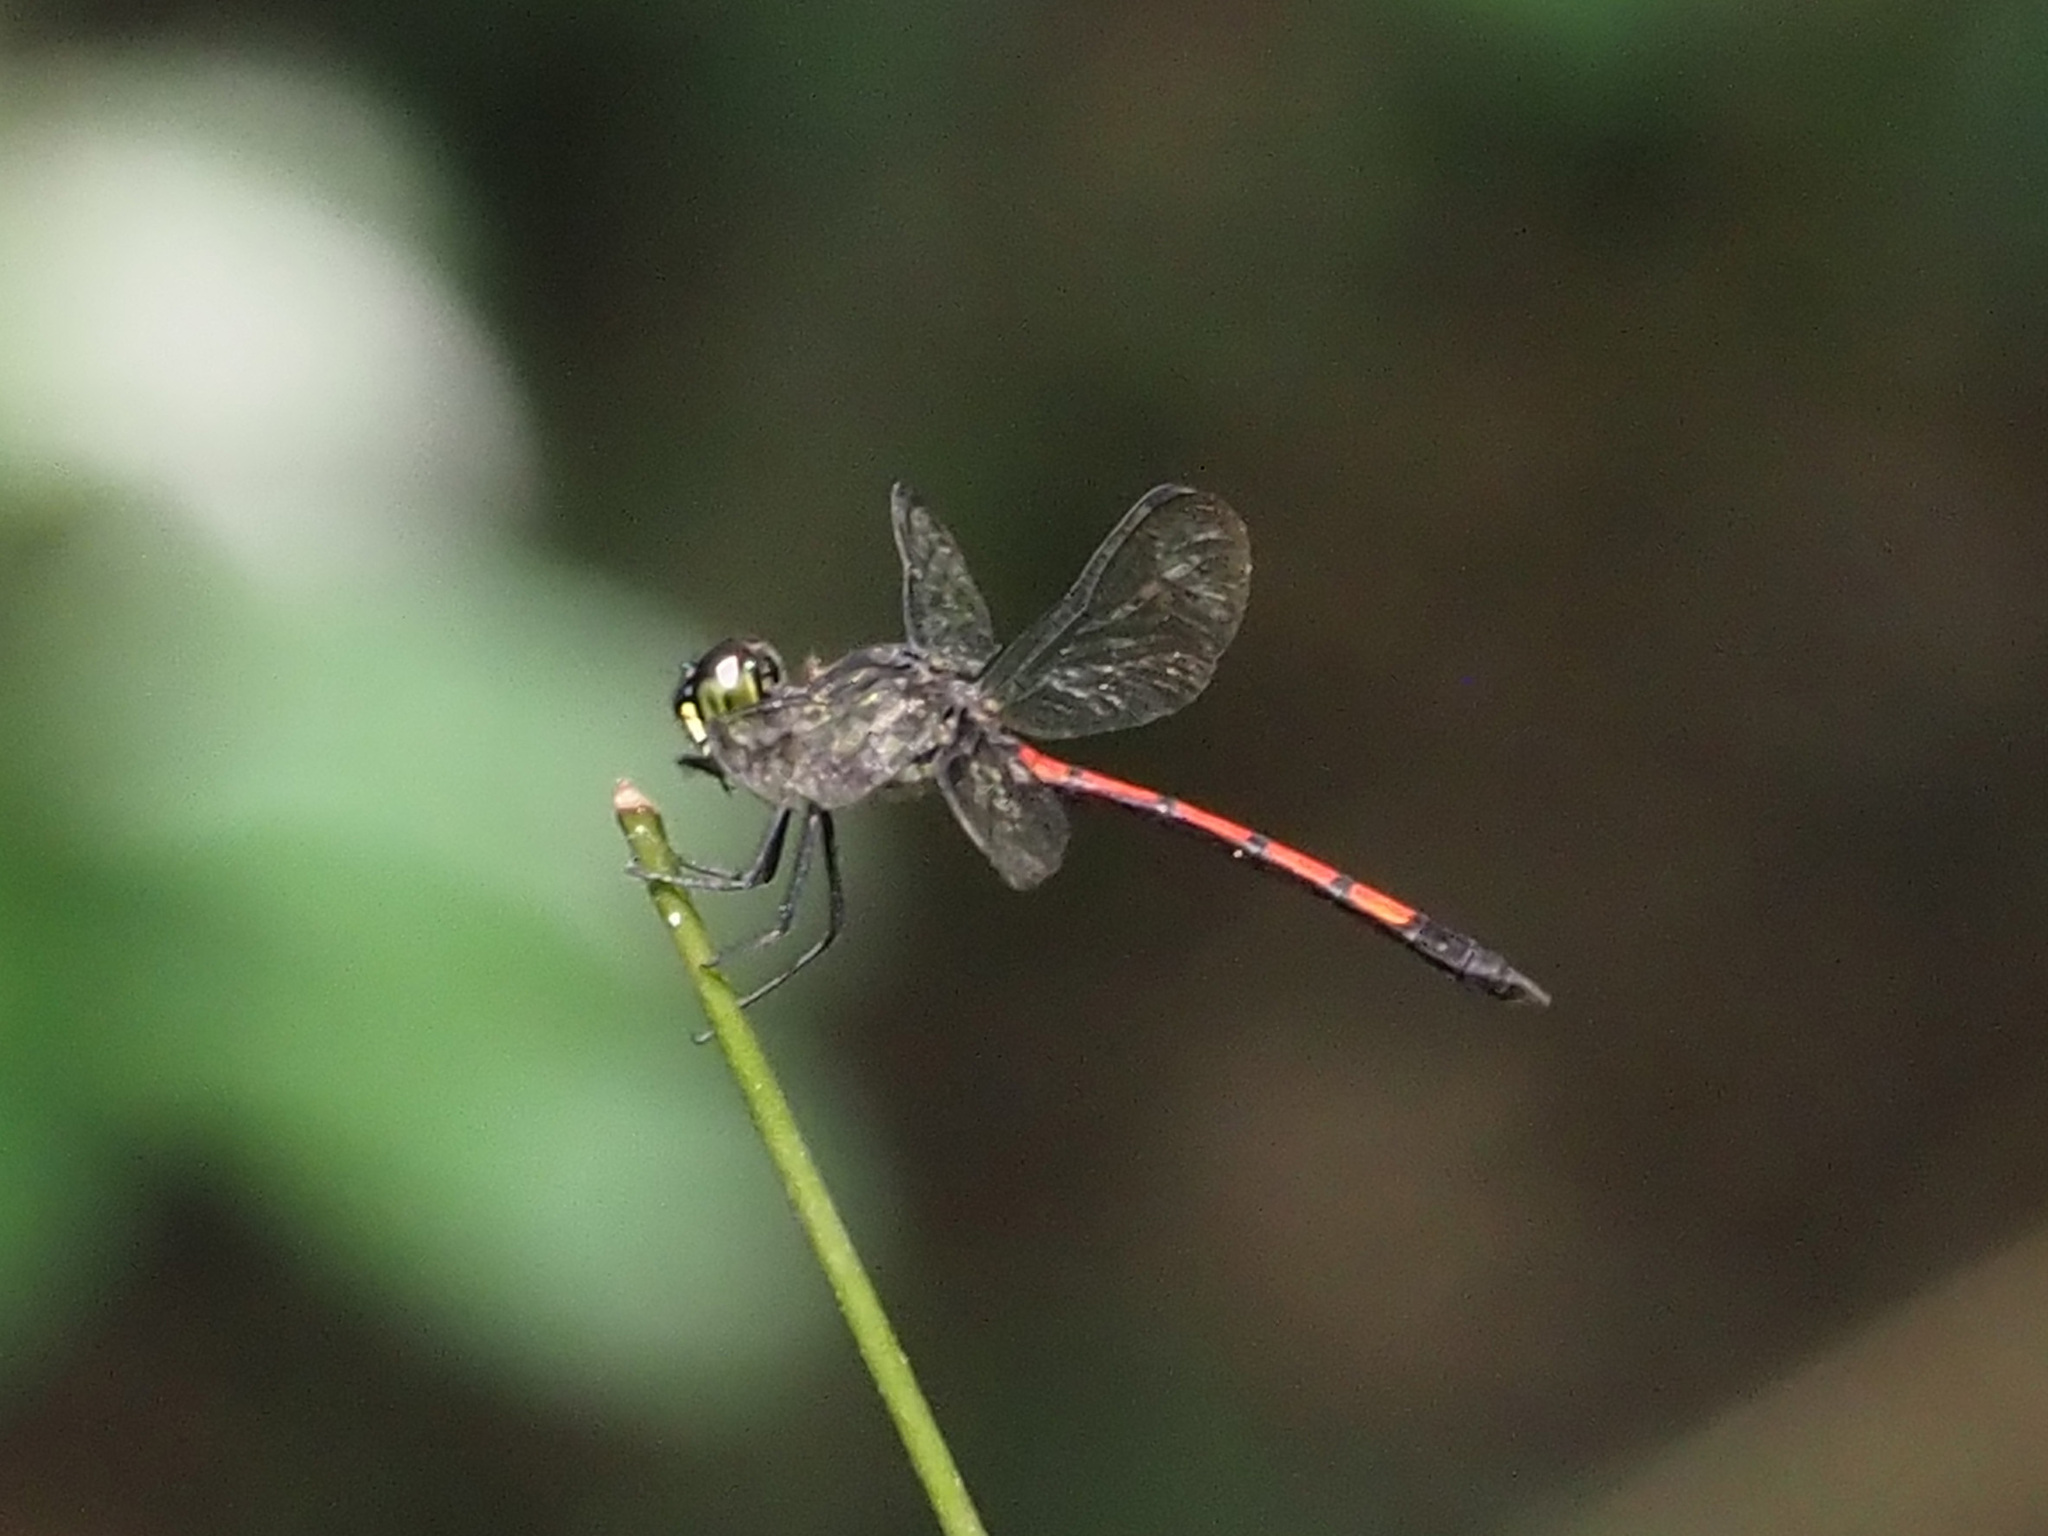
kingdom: Animalia
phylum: Arthropoda
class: Insecta
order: Odonata
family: Libellulidae
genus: Agrionoptera
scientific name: Agrionoptera insignis
